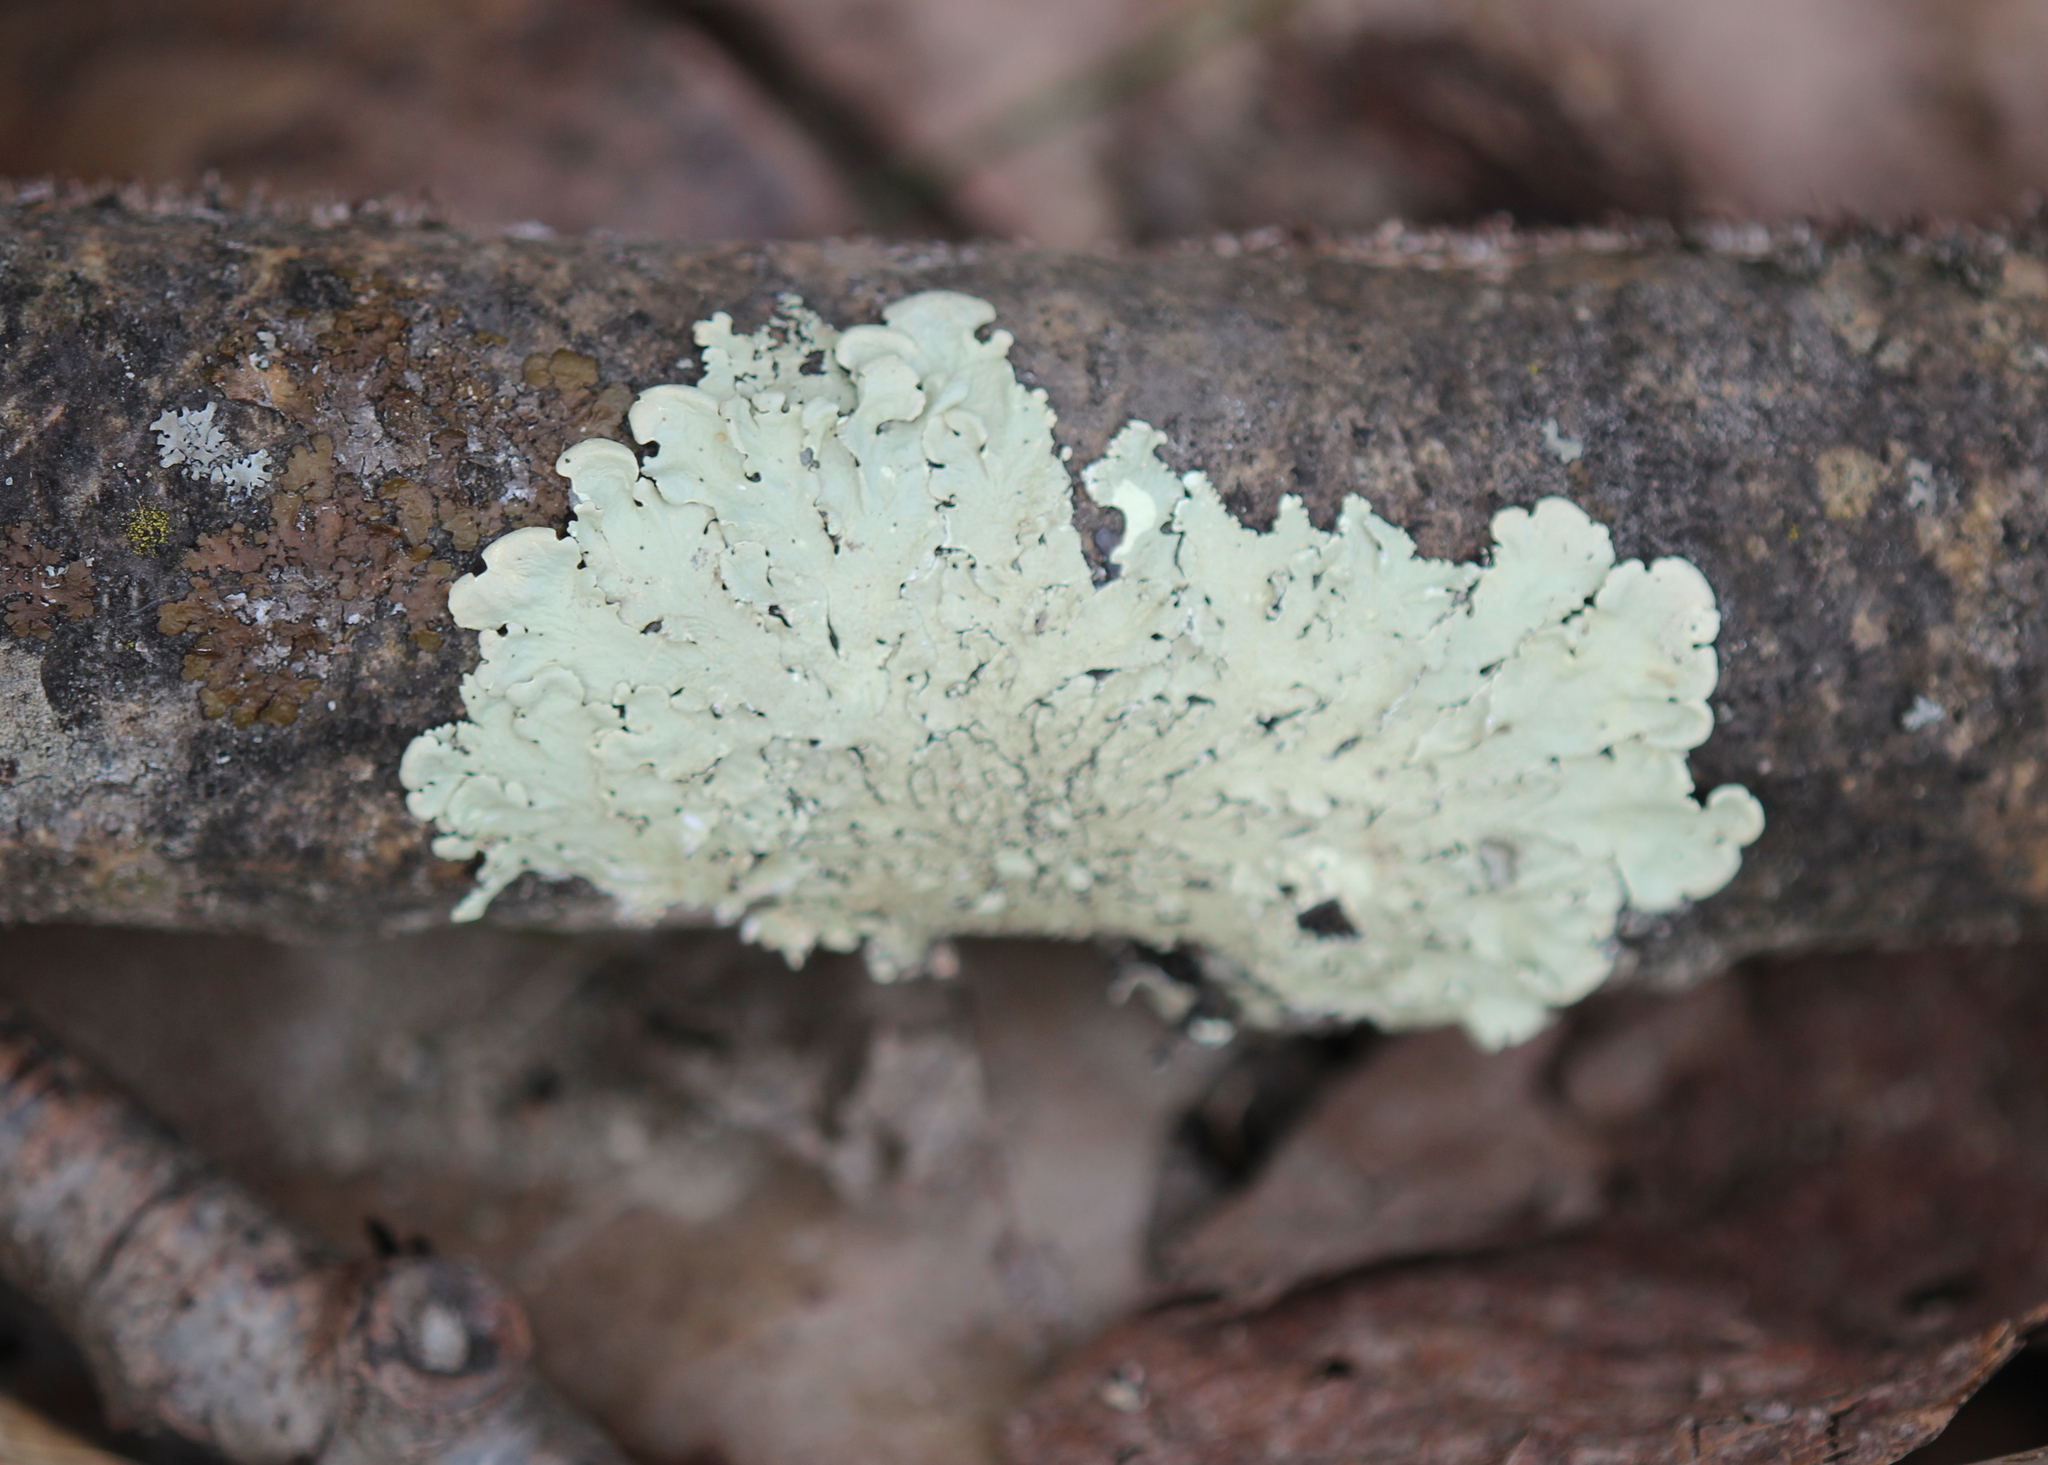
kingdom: Fungi
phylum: Ascomycota
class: Lecanoromycetes
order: Lecanorales
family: Parmeliaceae
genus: Flavoparmelia
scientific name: Flavoparmelia caperata
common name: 40-mile per hour lichen
